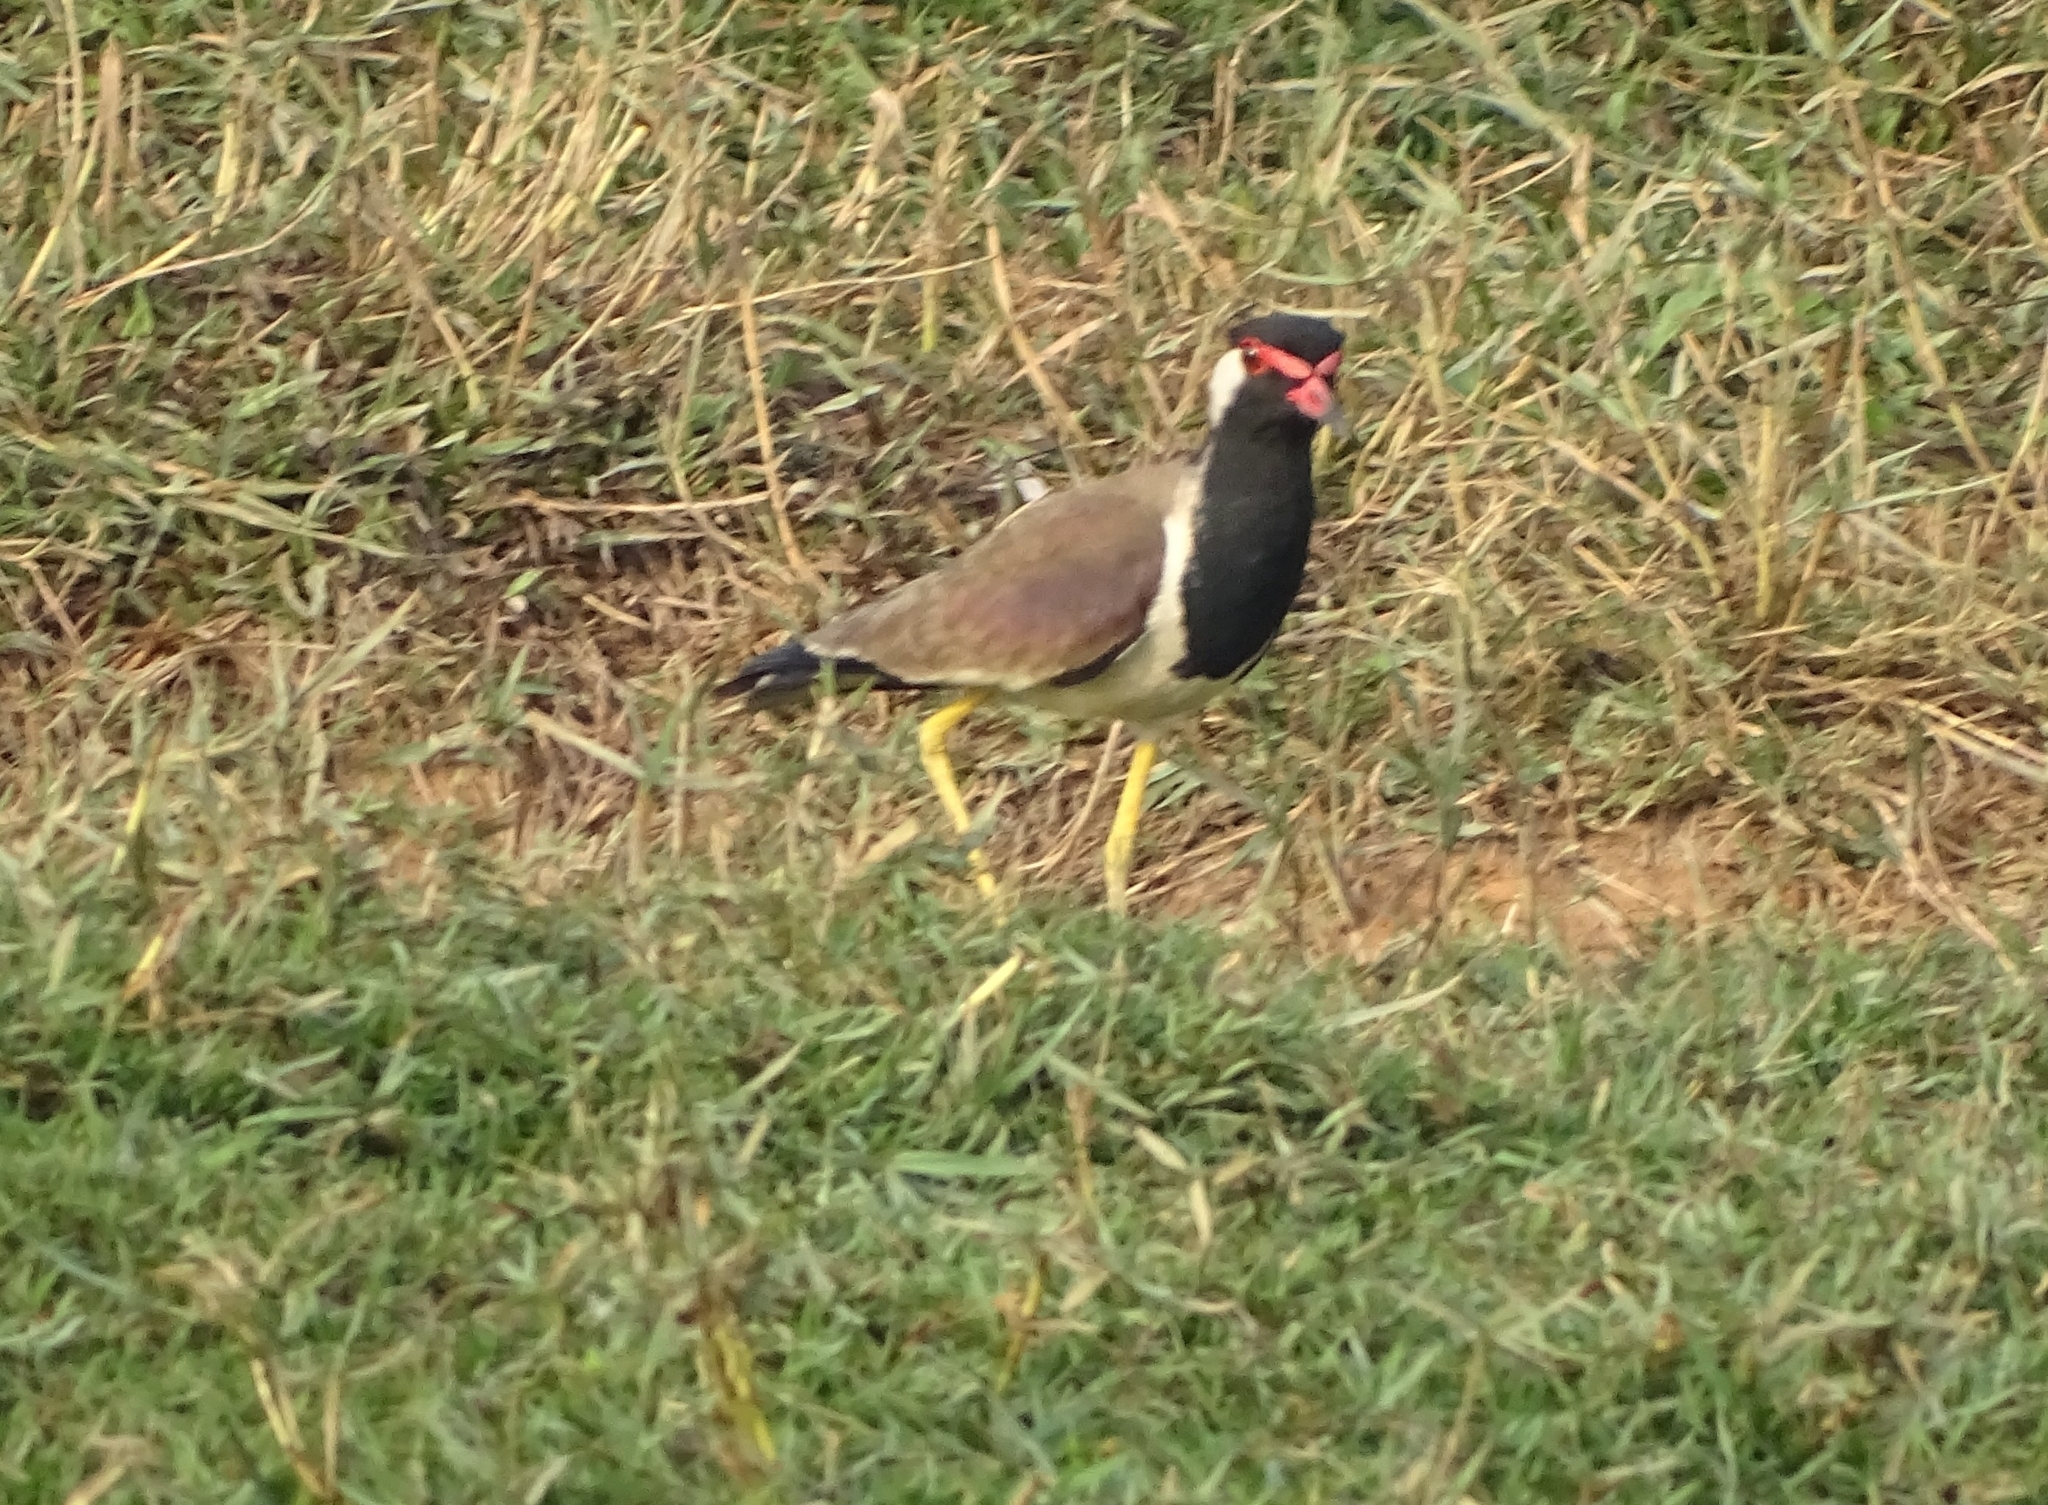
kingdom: Animalia
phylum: Chordata
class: Aves
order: Charadriiformes
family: Charadriidae
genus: Vanellus
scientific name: Vanellus indicus
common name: Red-wattled lapwing
